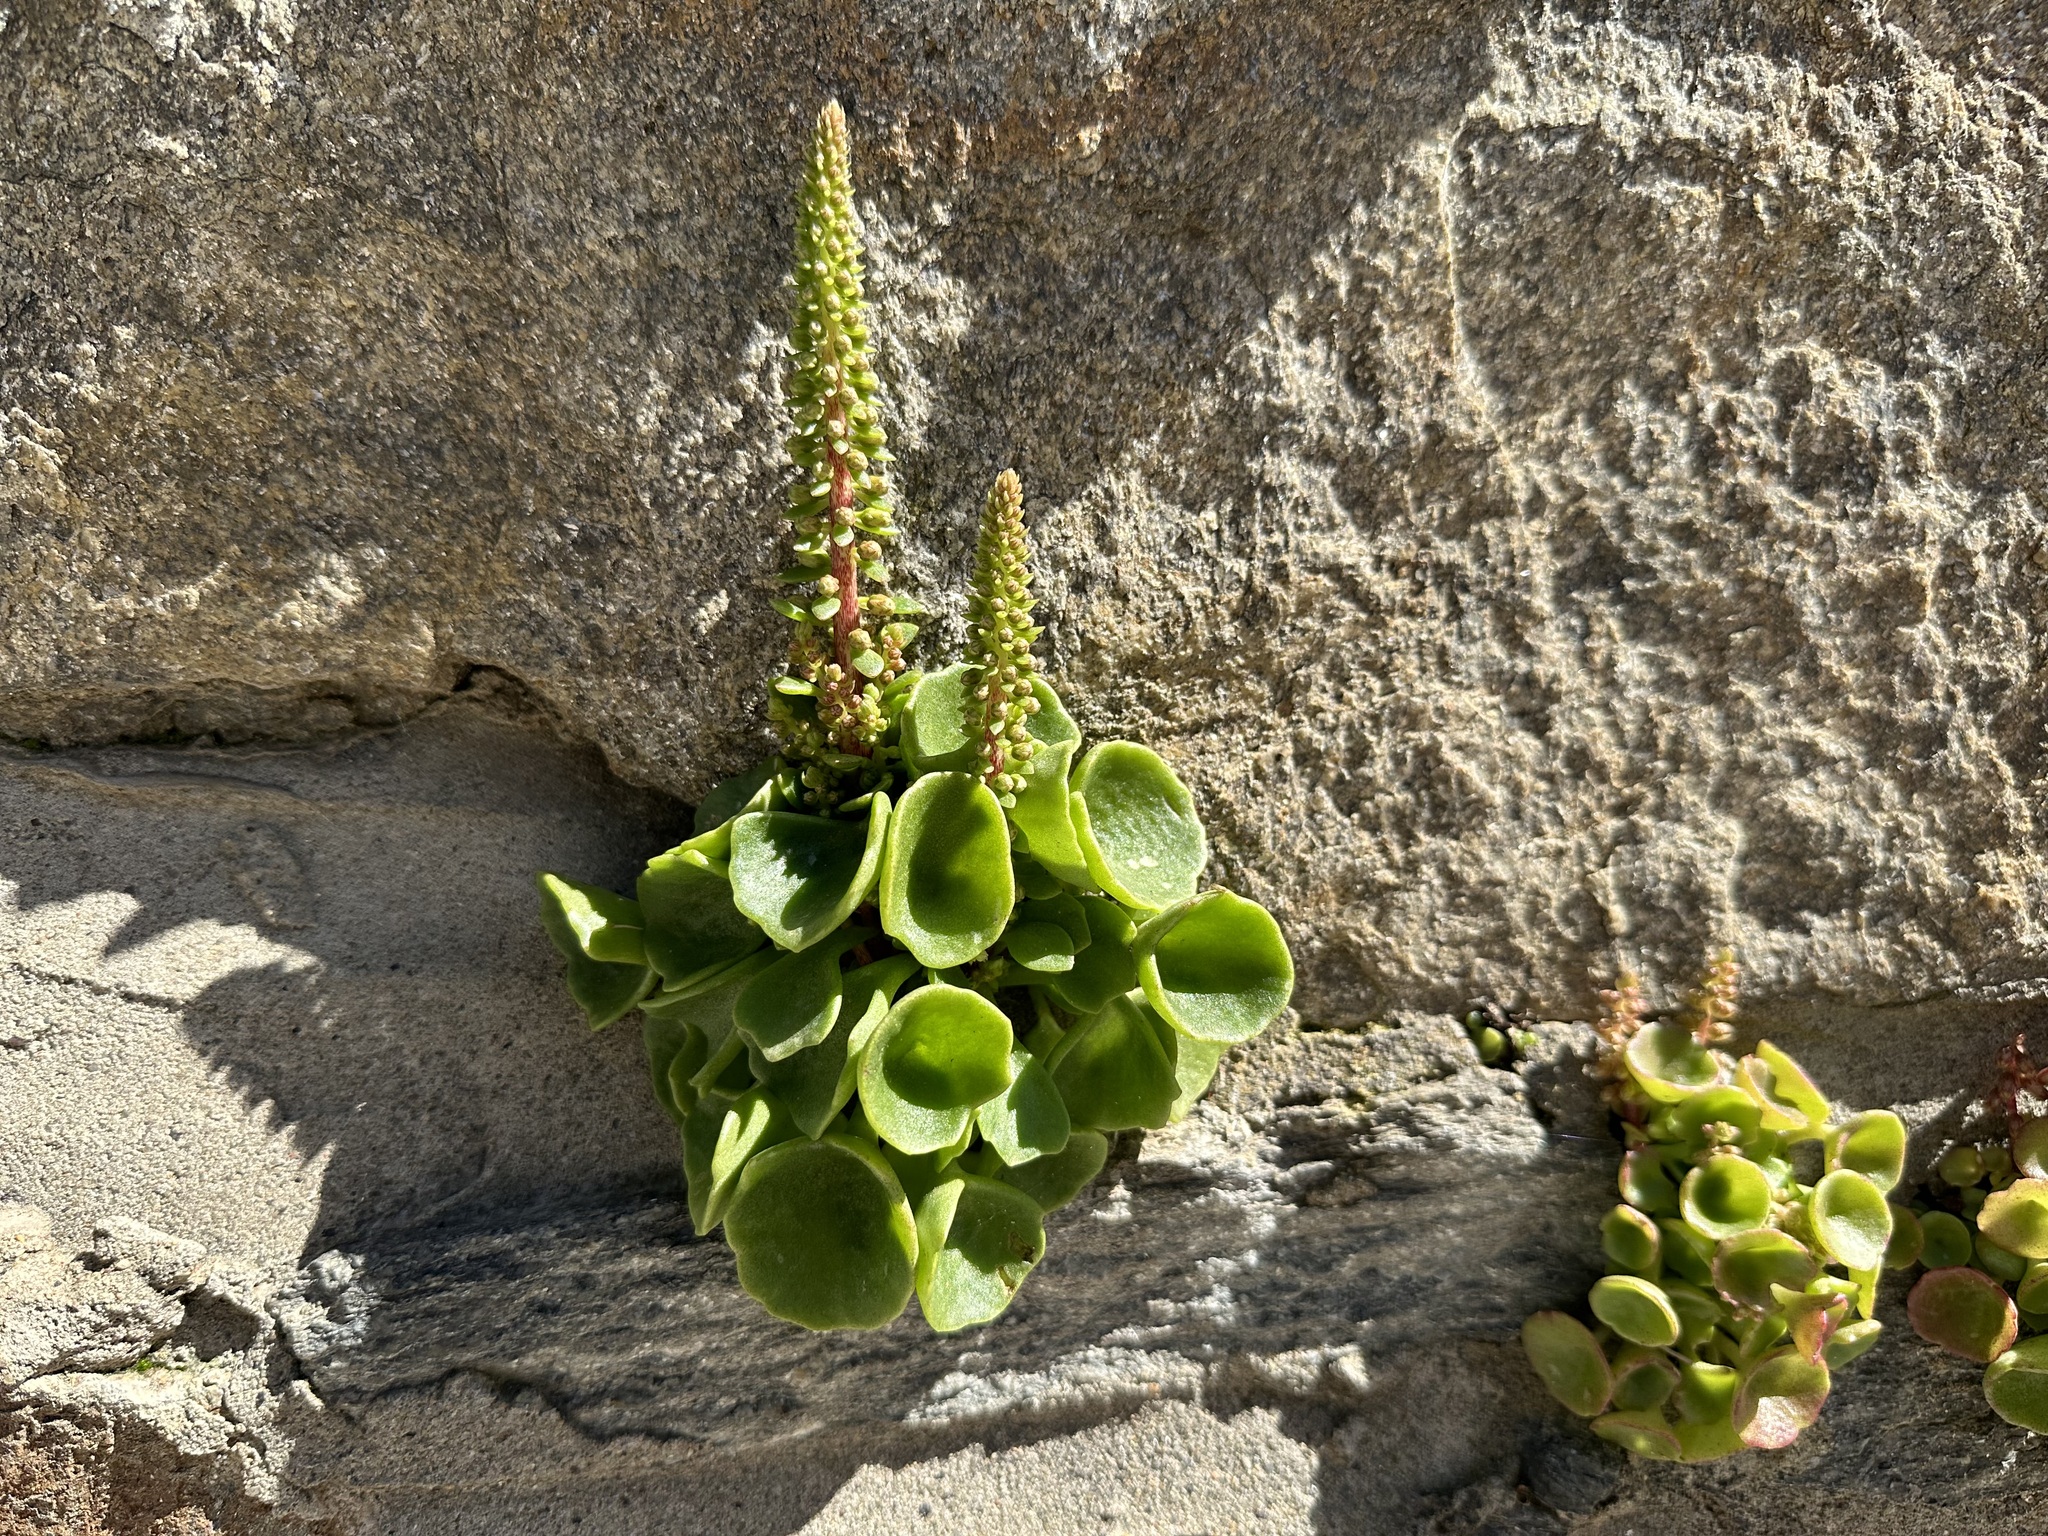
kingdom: Plantae
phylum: Tracheophyta
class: Magnoliopsida
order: Saxifragales
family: Crassulaceae
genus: Umbilicus
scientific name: Umbilicus rupestris
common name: Navelwort
